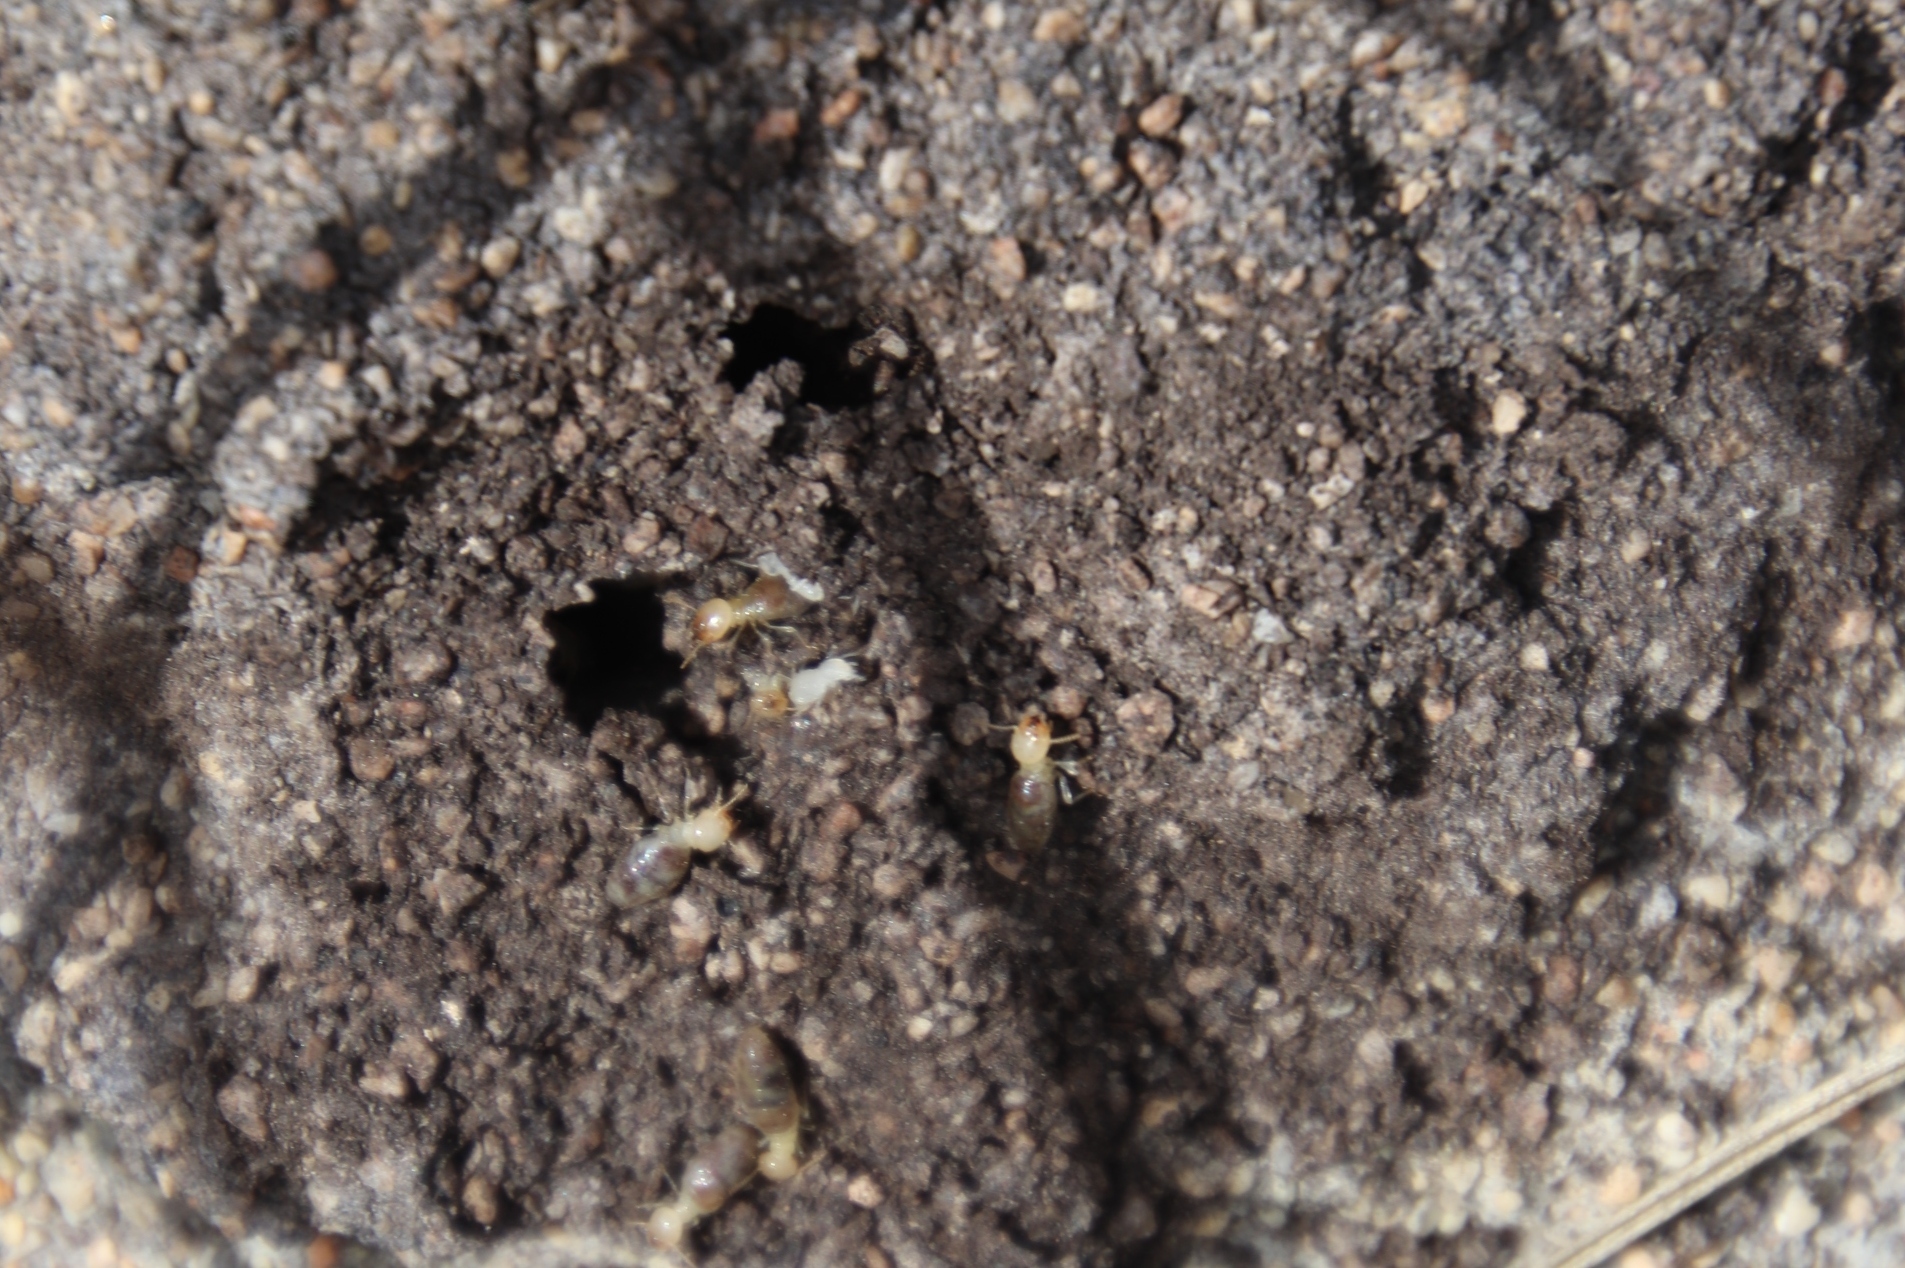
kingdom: Animalia
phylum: Arthropoda
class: Insecta
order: Blattodea
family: Termitidae
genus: Amitermes
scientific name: Amitermes hastatus
